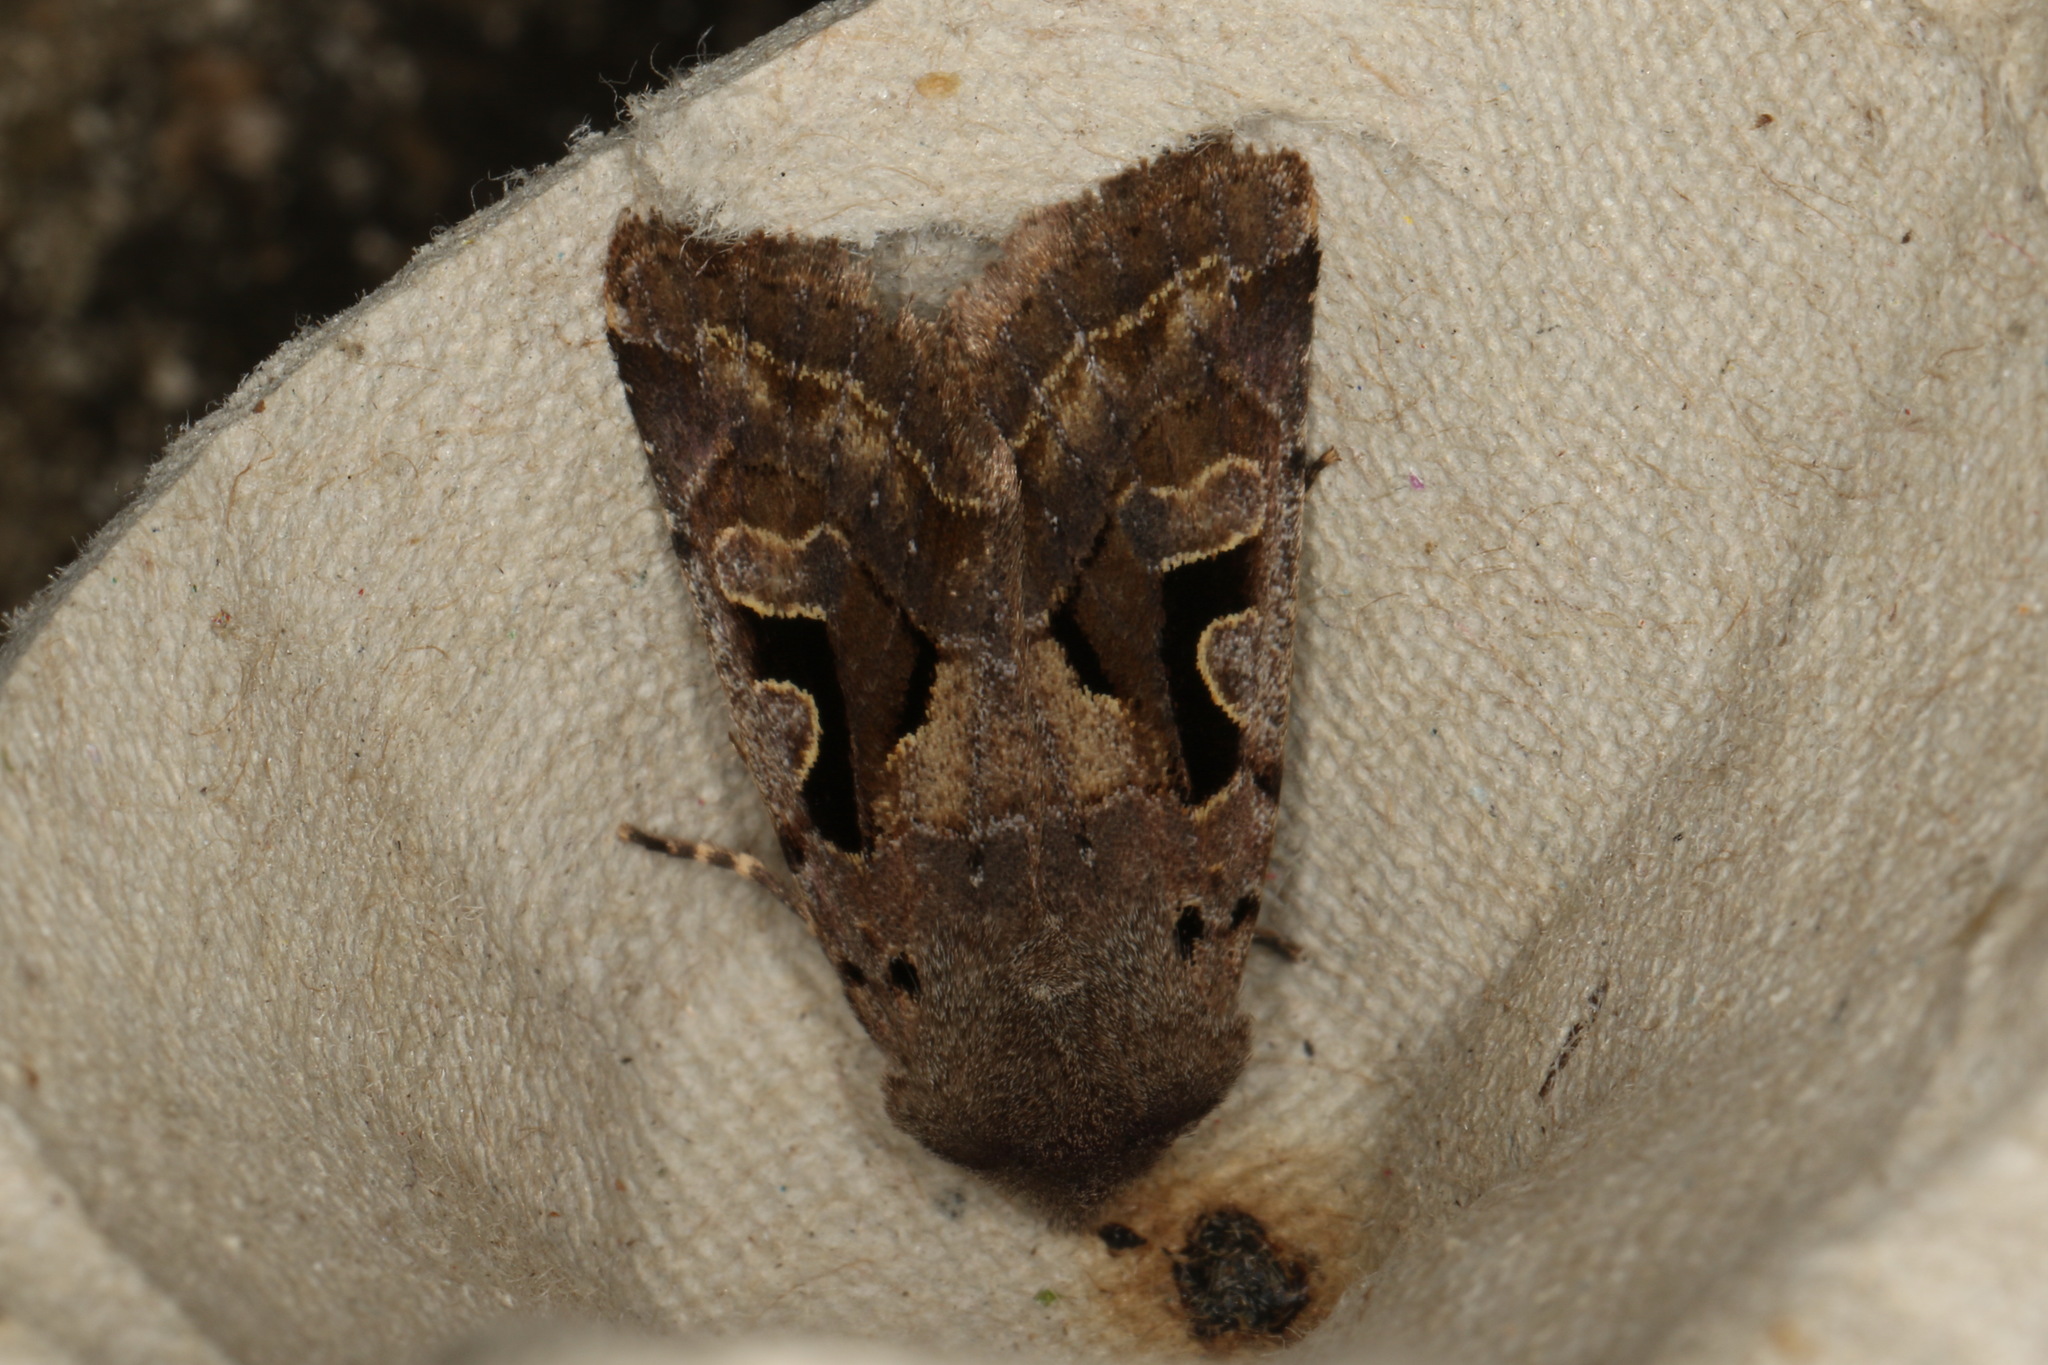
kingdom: Animalia
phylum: Arthropoda
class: Insecta
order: Lepidoptera
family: Noctuidae
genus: Orthosia
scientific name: Orthosia gothica
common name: Hebrew character
